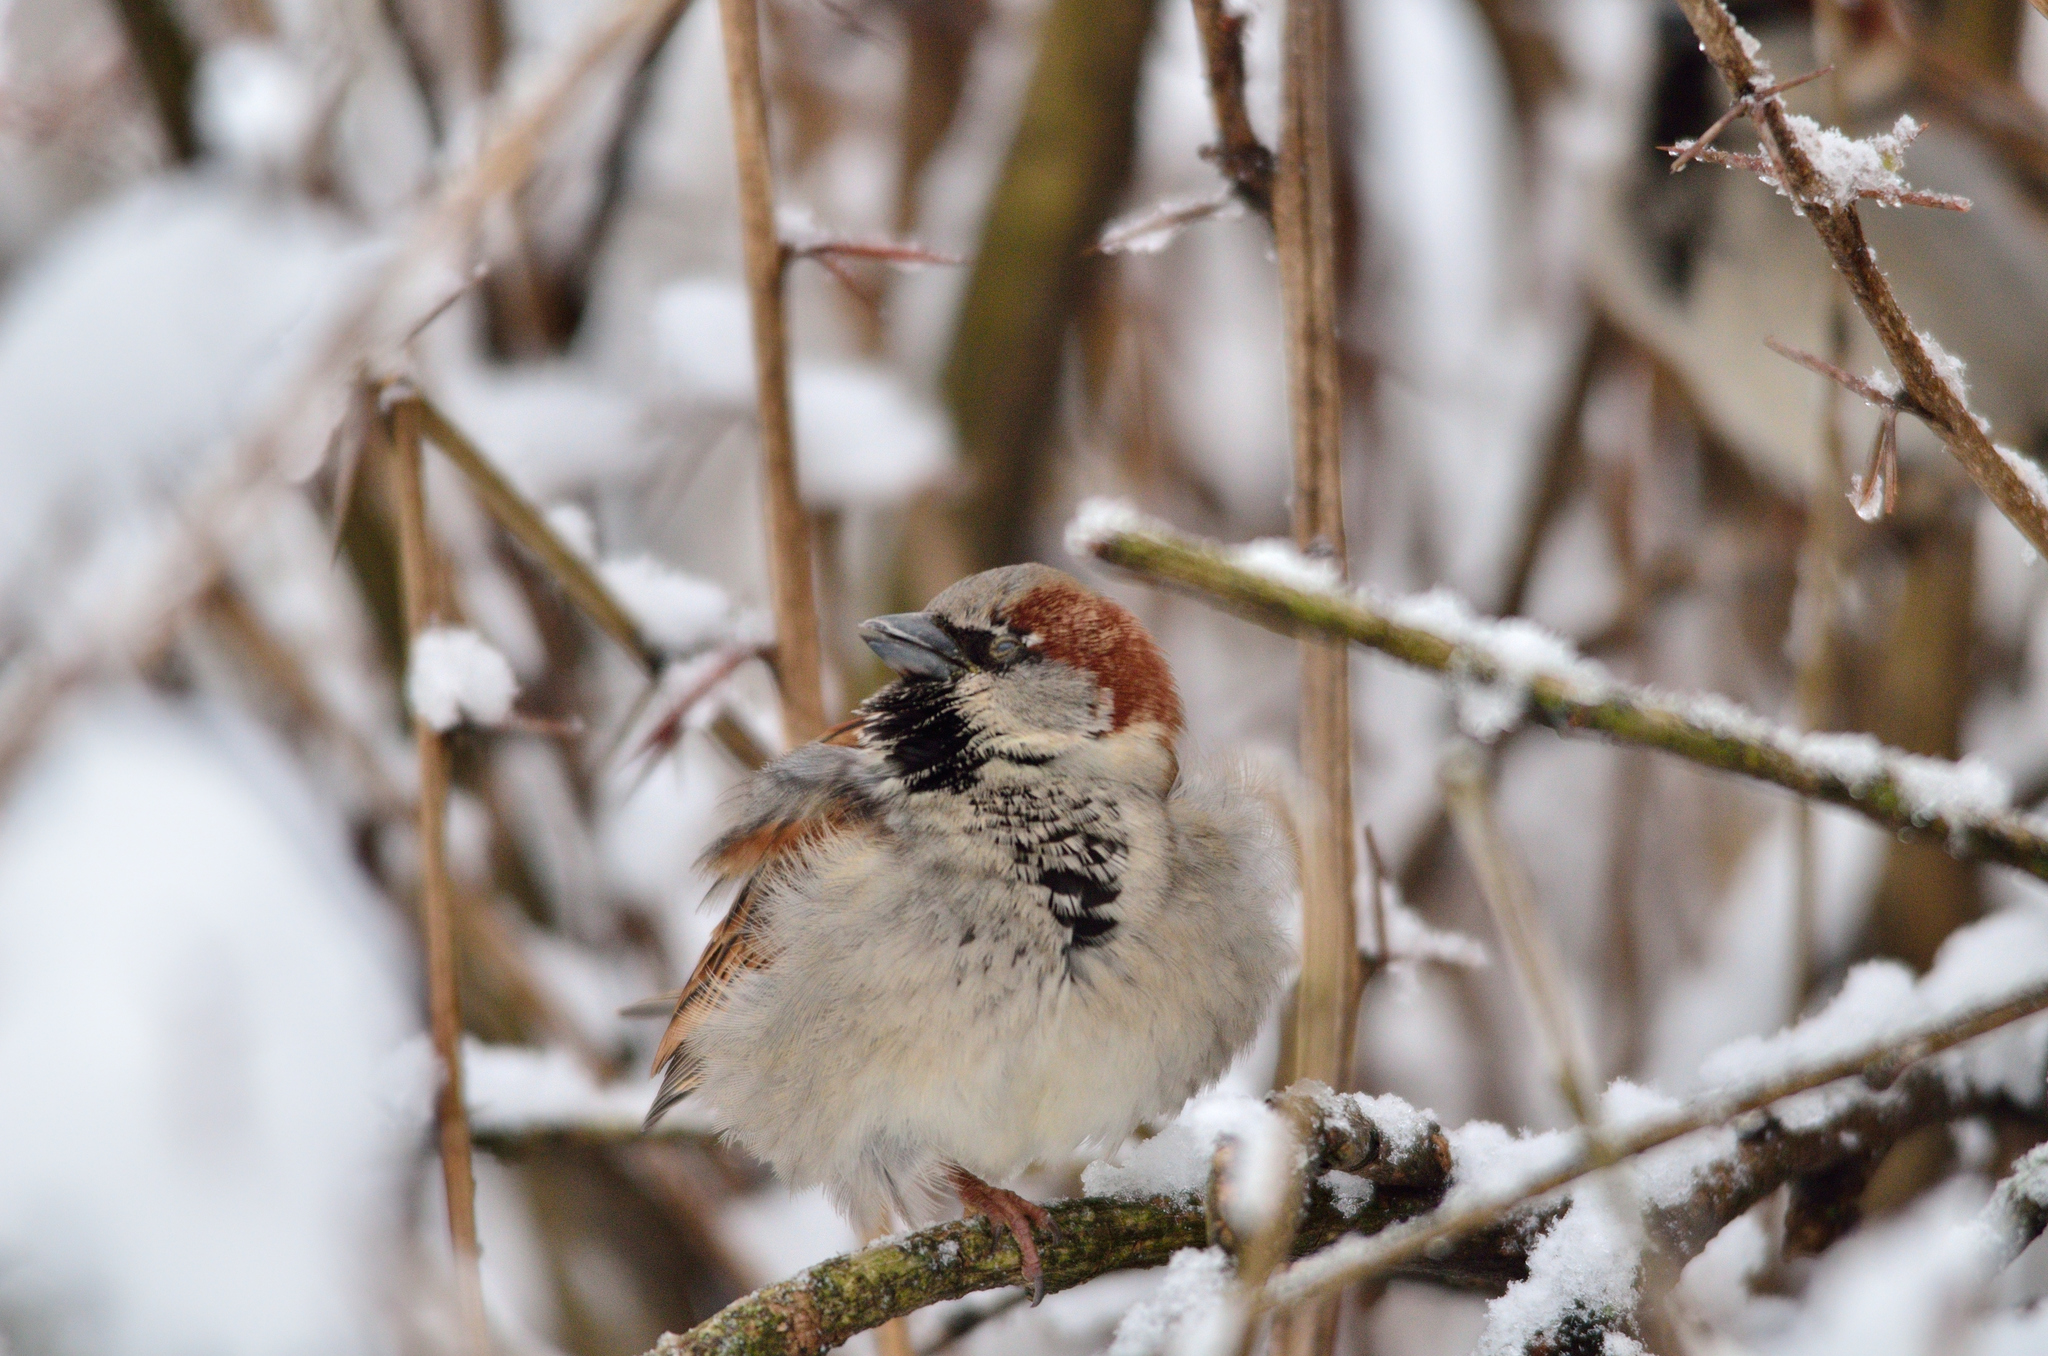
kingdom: Animalia
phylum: Chordata
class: Aves
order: Passeriformes
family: Passeridae
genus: Passer
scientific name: Passer domesticus
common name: House sparrow
